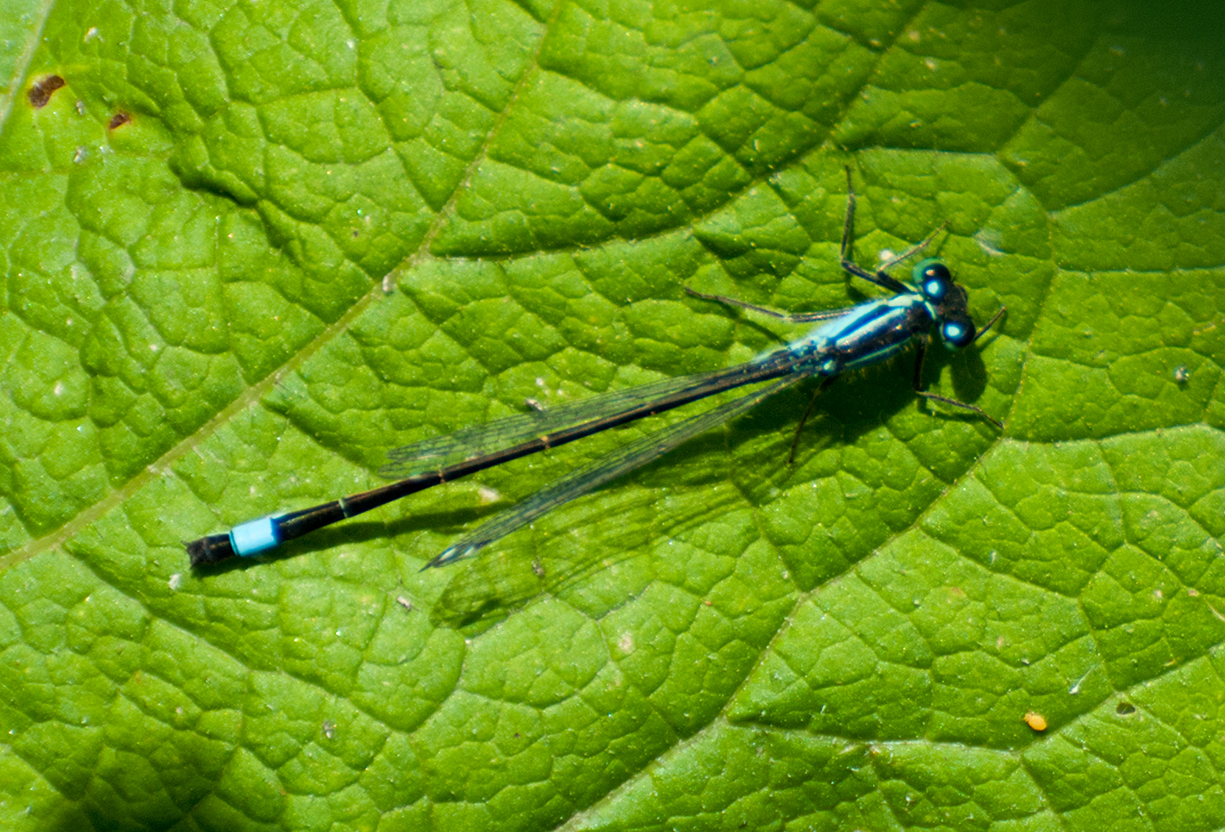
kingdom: Animalia
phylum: Arthropoda
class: Insecta
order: Odonata
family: Coenagrionidae
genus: Ischnura
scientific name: Ischnura elegans
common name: Blue-tailed damselfly
